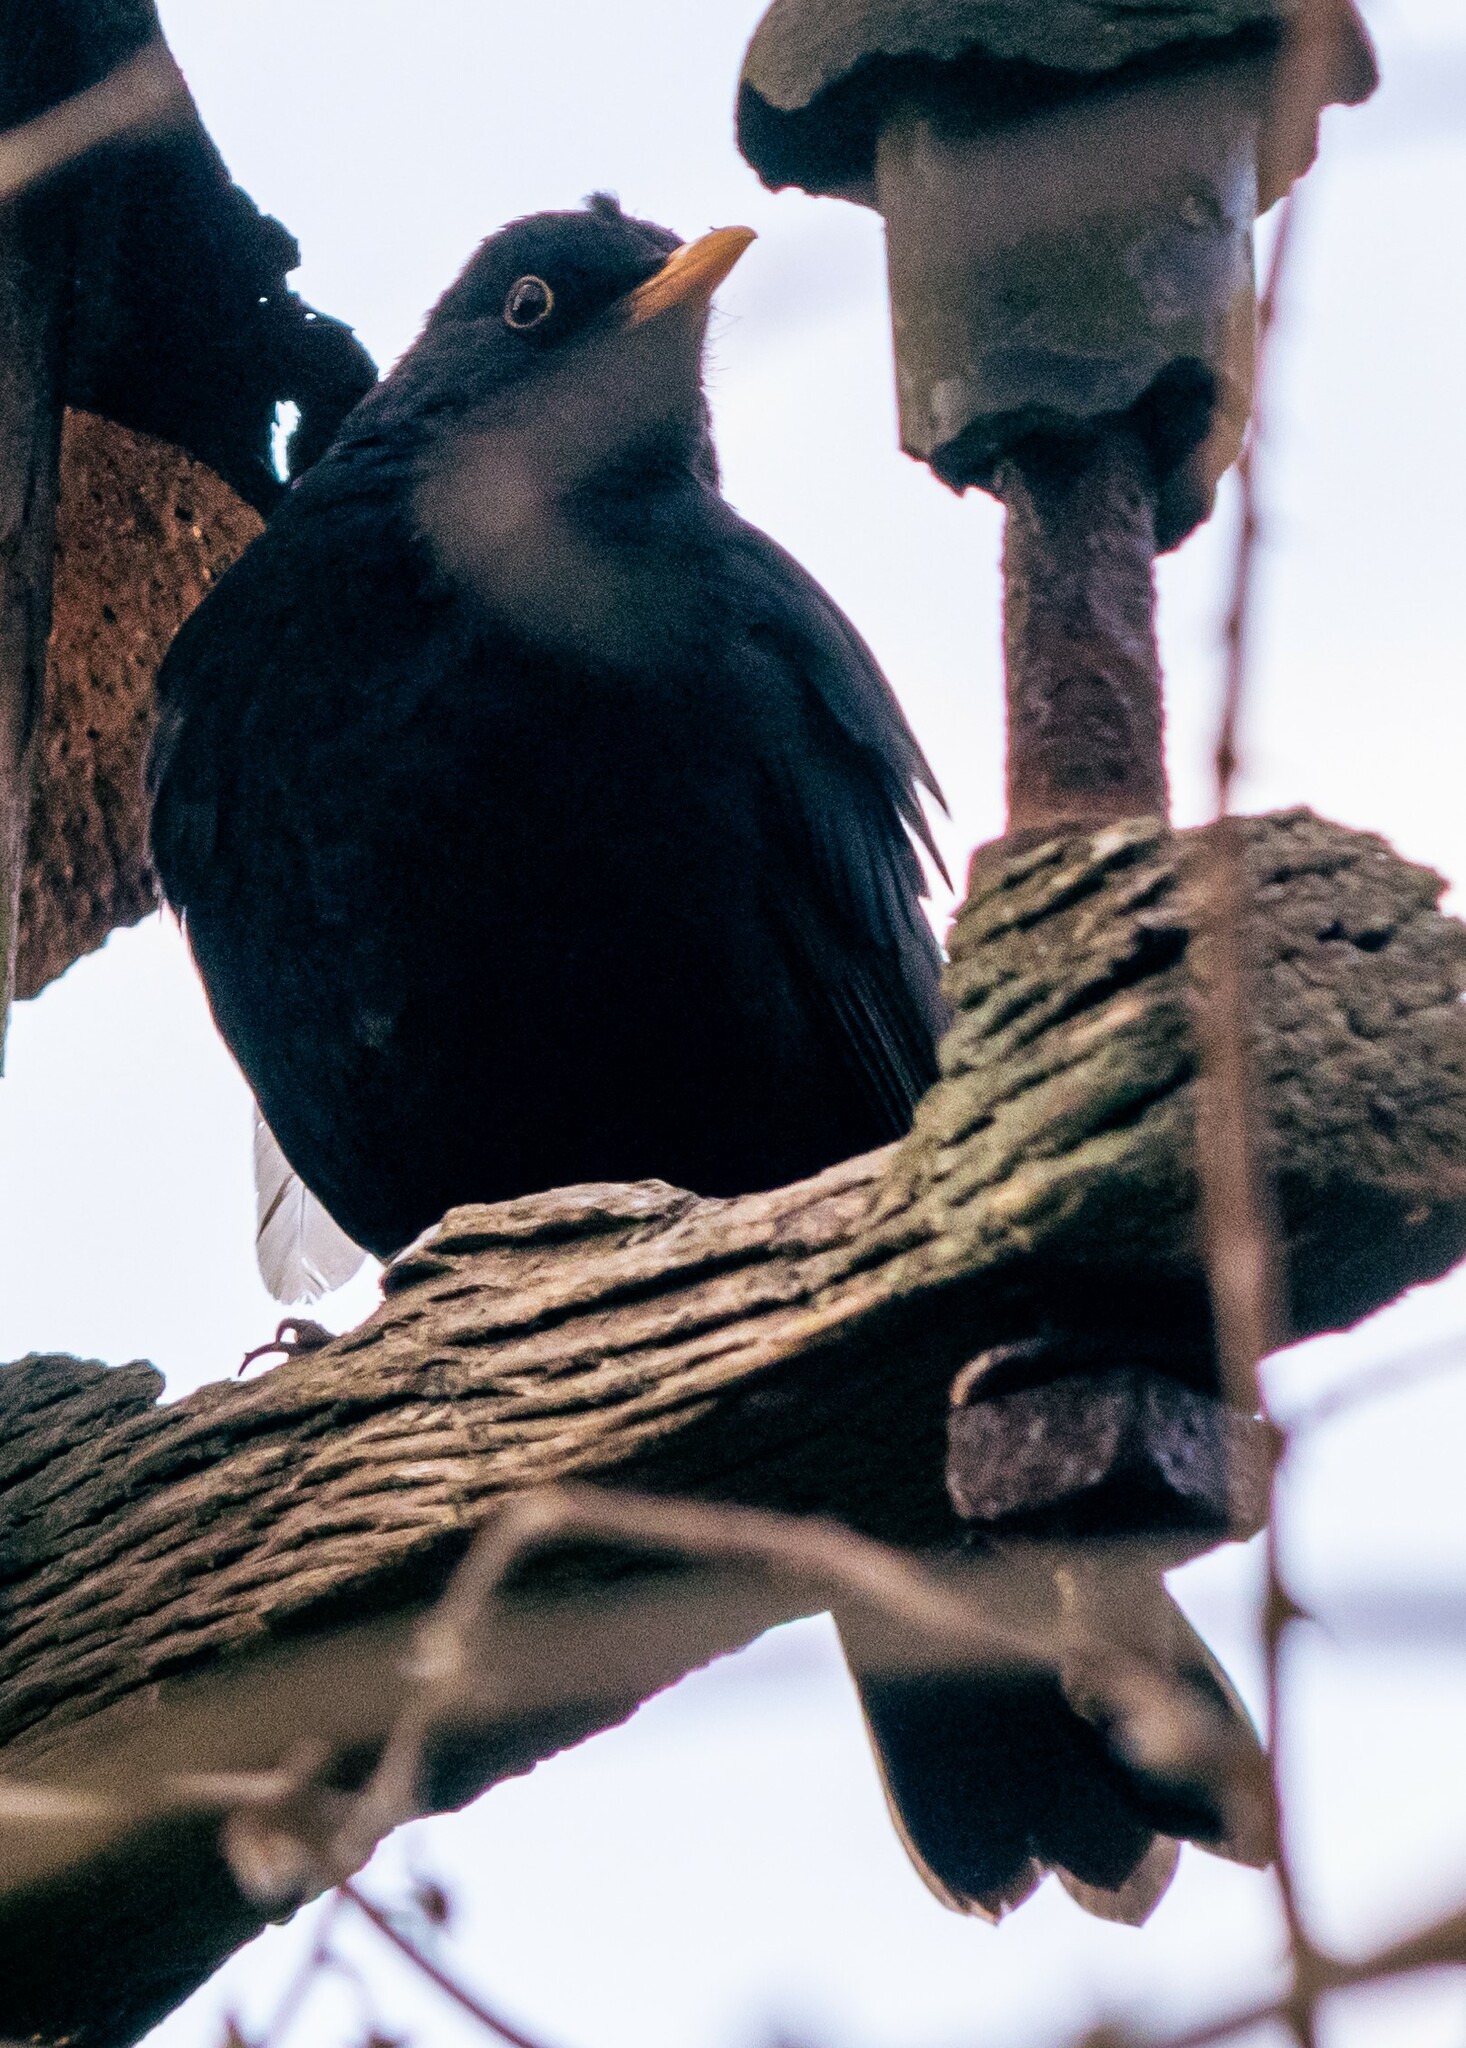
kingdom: Animalia
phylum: Chordata
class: Aves
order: Passeriformes
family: Turdidae
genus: Turdus
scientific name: Turdus merula
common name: Common blackbird
